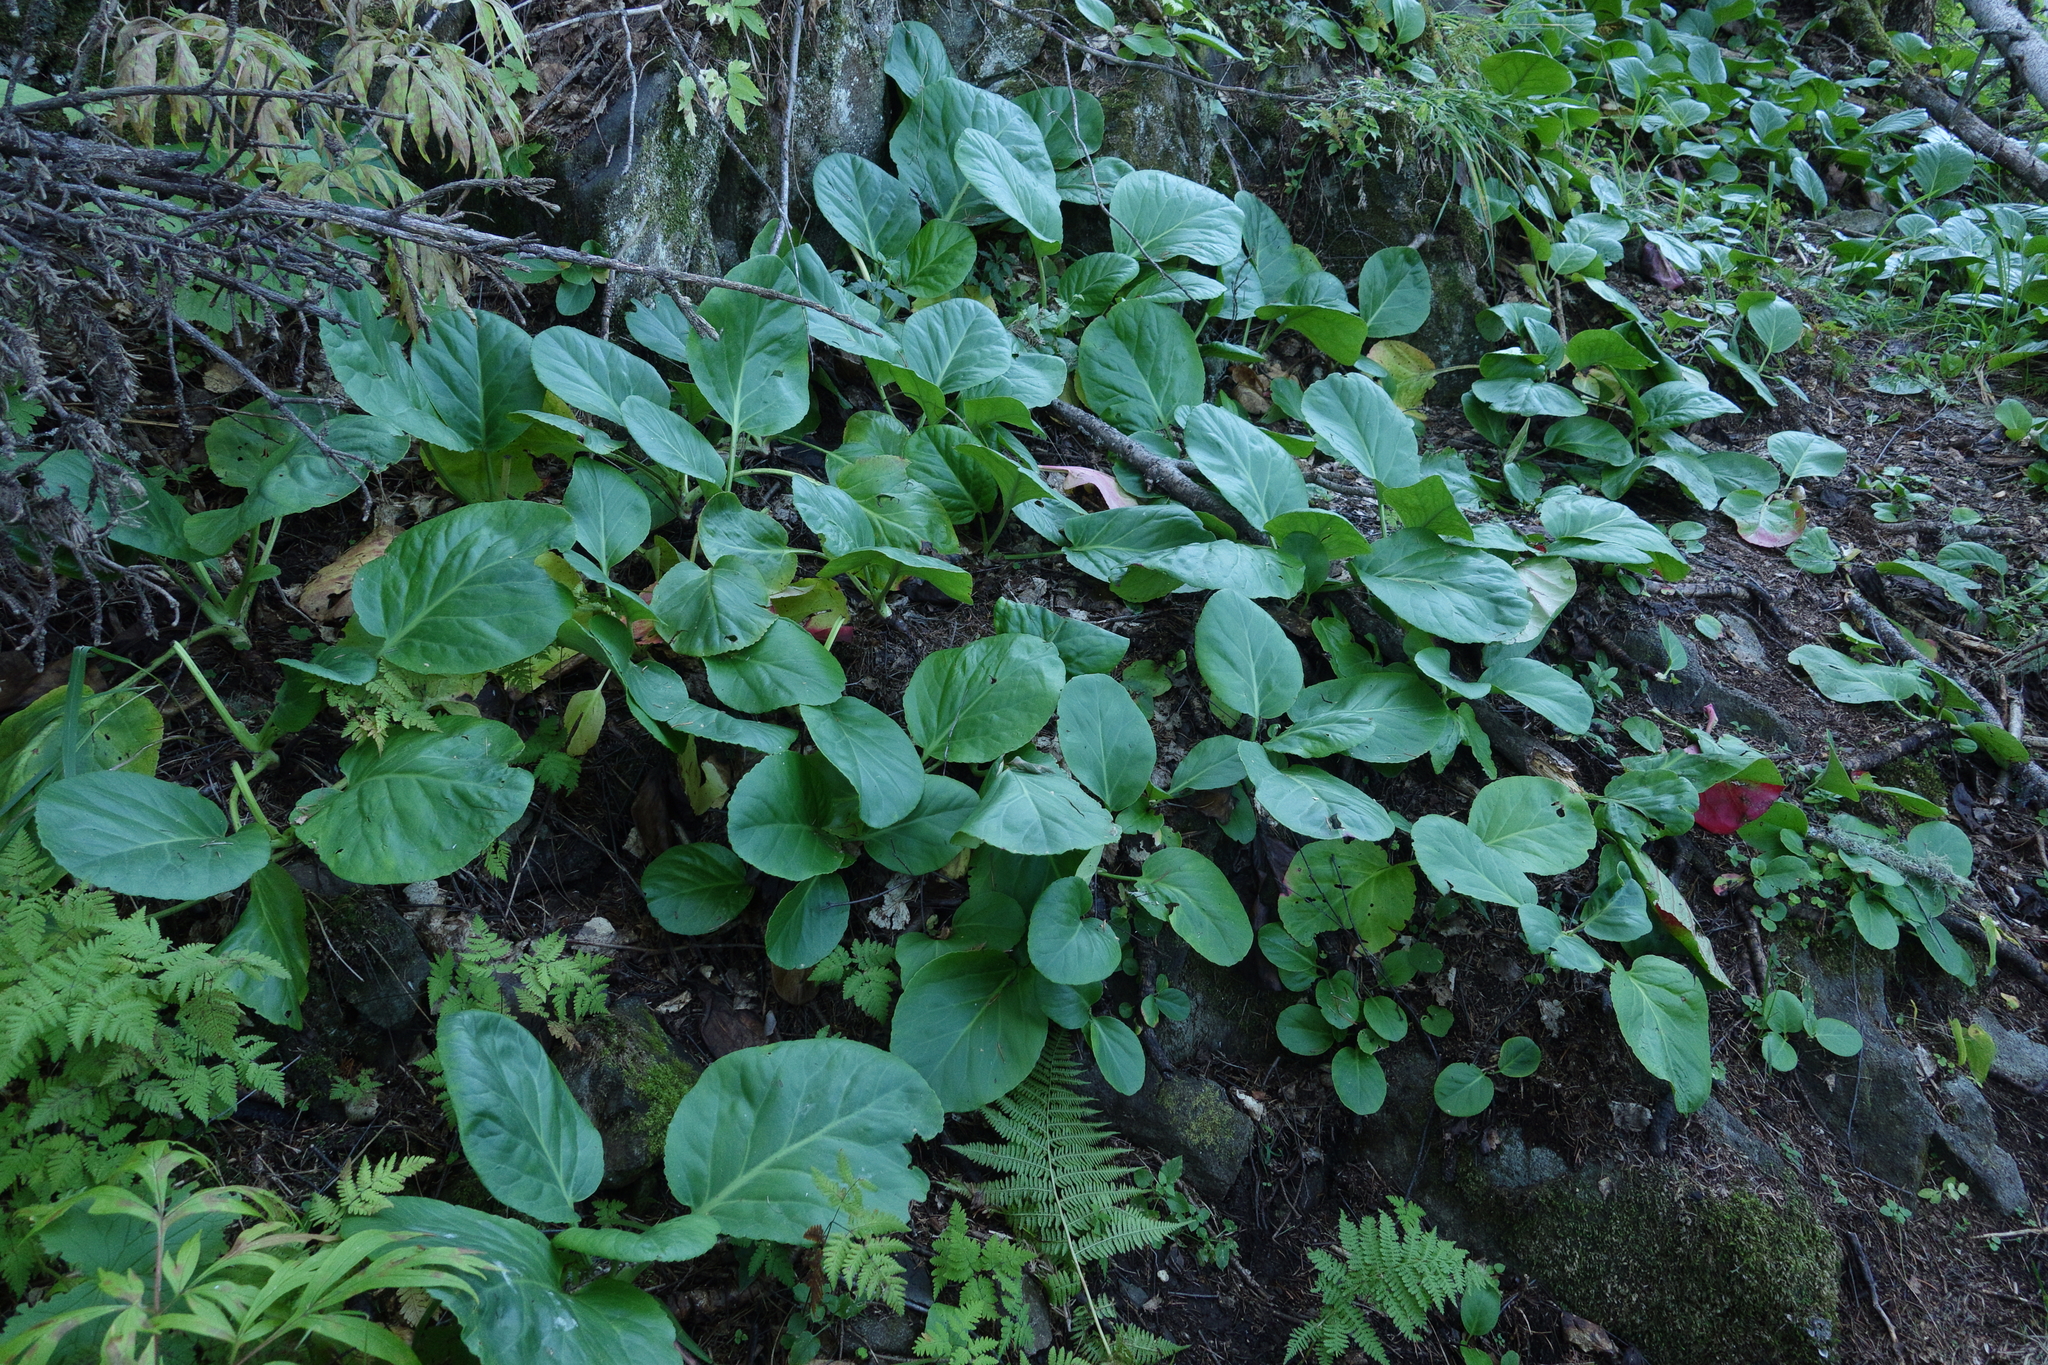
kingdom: Plantae
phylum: Tracheophyta
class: Magnoliopsida
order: Saxifragales
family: Saxifragaceae
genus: Bergenia
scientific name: Bergenia crassifolia
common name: Elephant-ears
